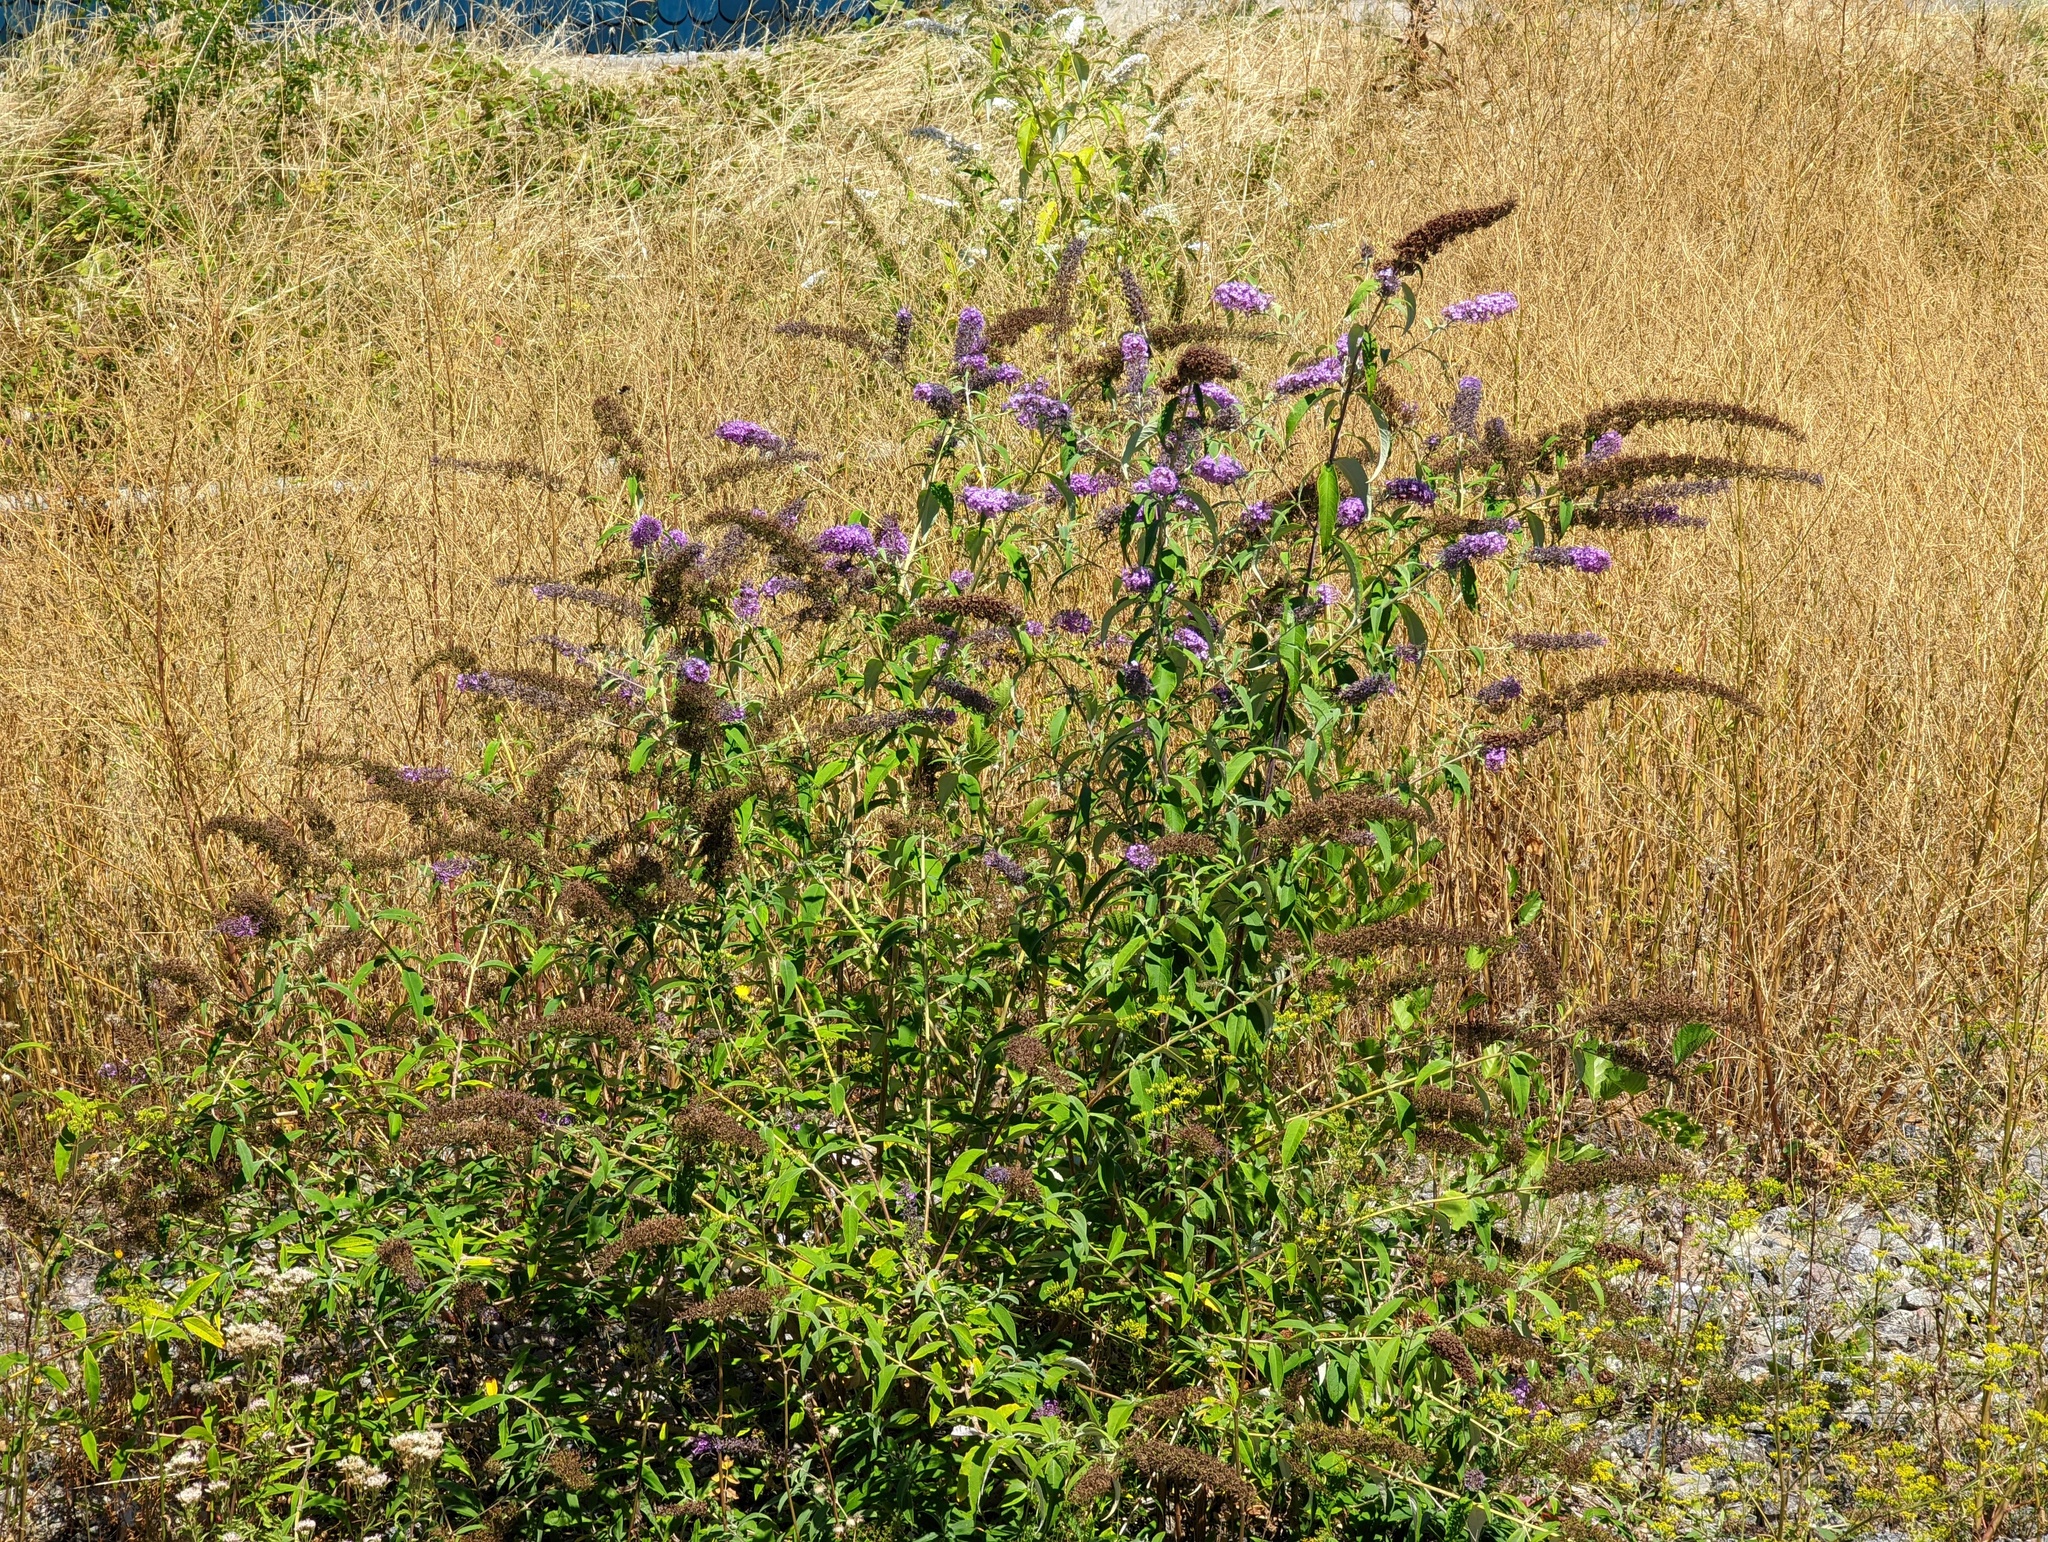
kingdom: Plantae
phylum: Tracheophyta
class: Magnoliopsida
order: Lamiales
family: Scrophulariaceae
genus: Buddleja
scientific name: Buddleja davidii
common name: Butterfly-bush
